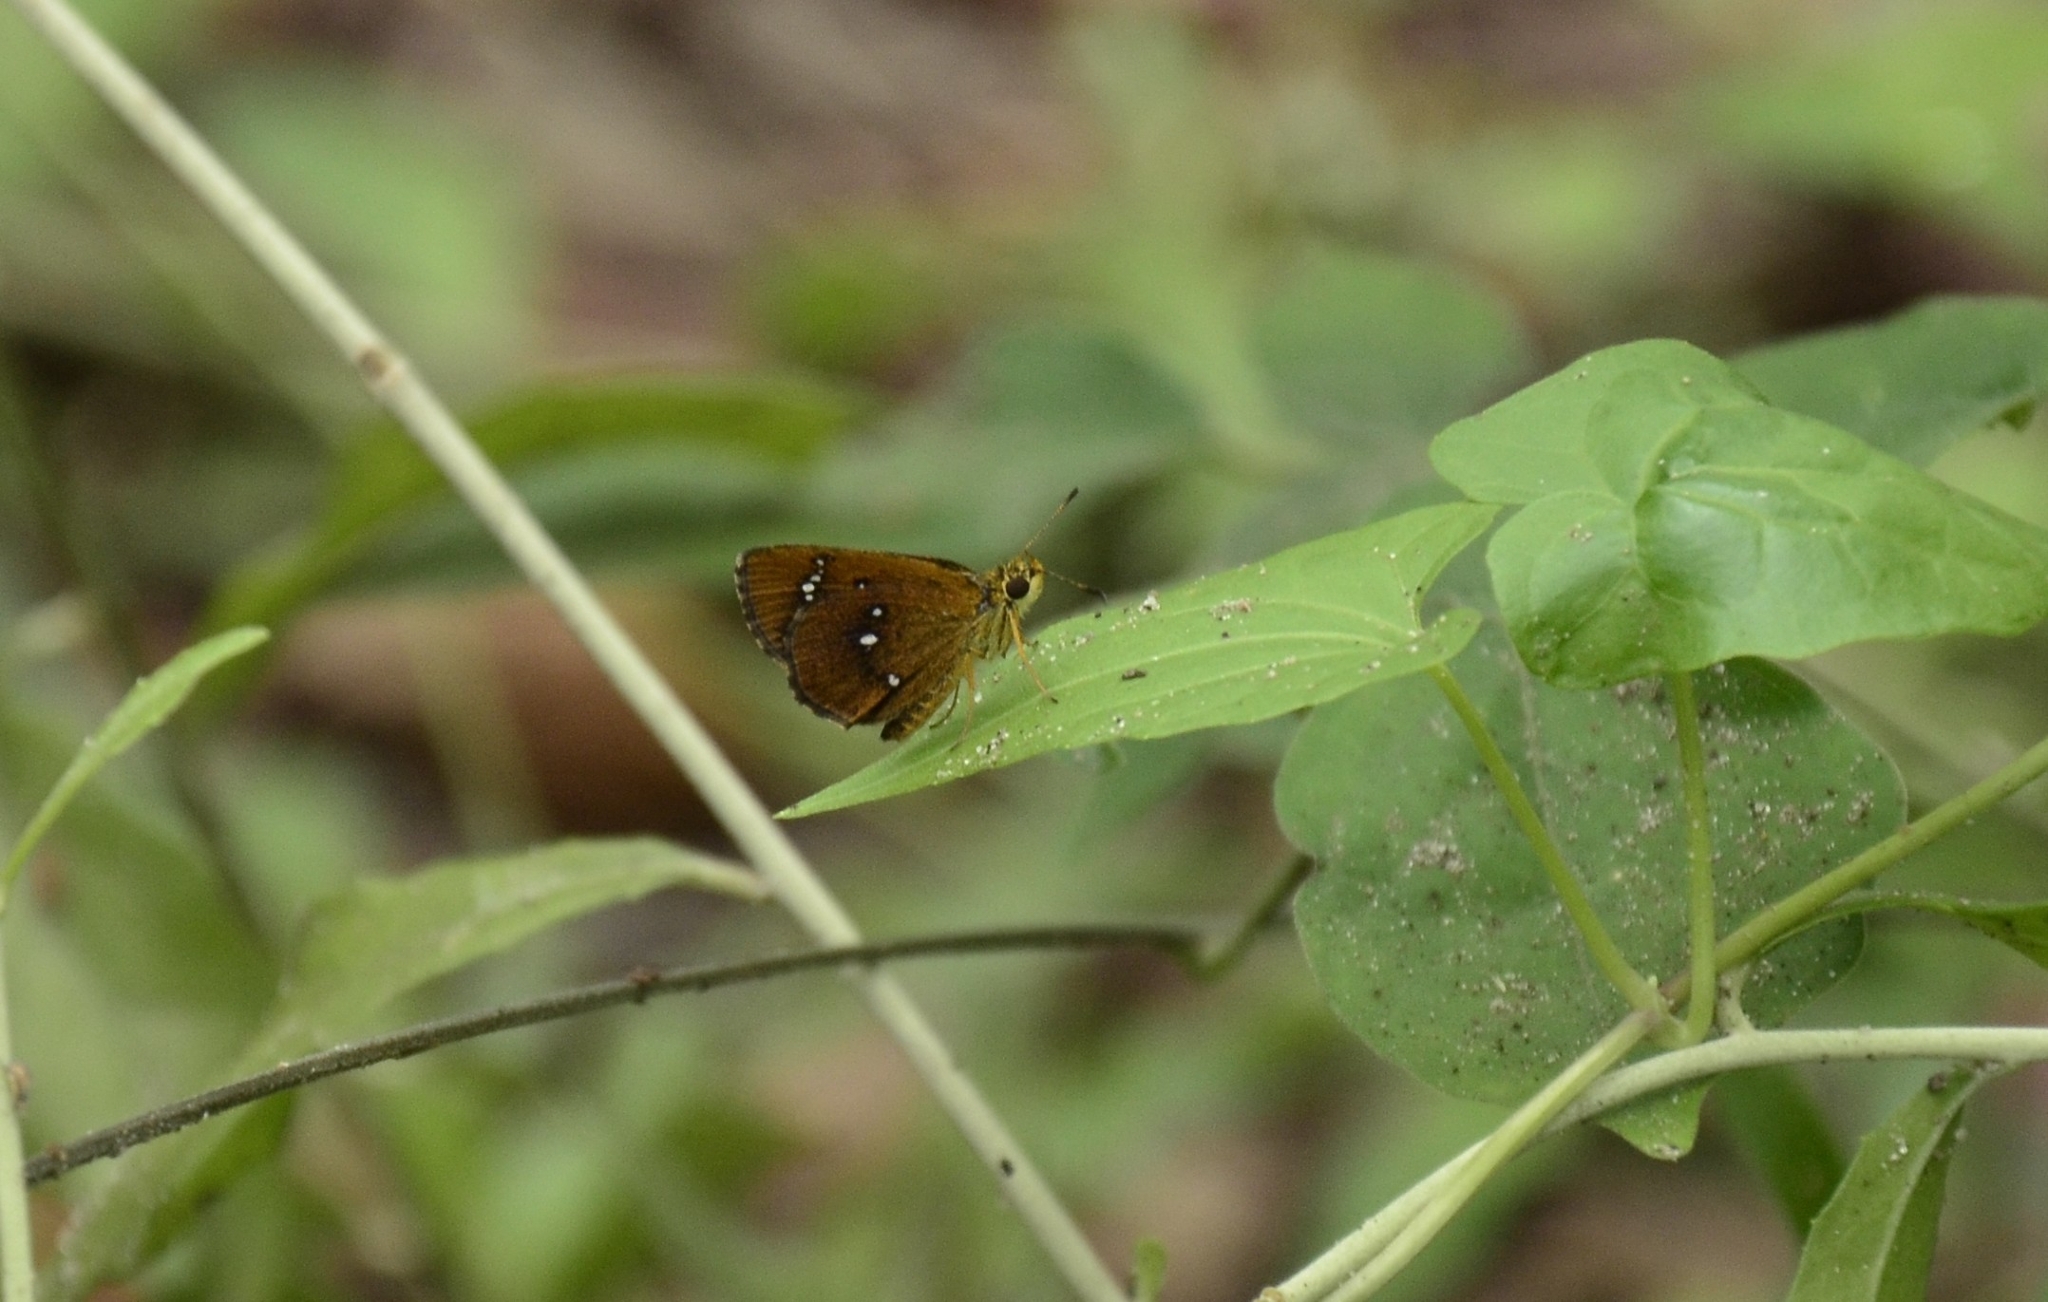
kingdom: Animalia
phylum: Arthropoda
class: Insecta
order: Lepidoptera
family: Hesperiidae
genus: Iambrix
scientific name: Iambrix salsala
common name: Chestnut bob
